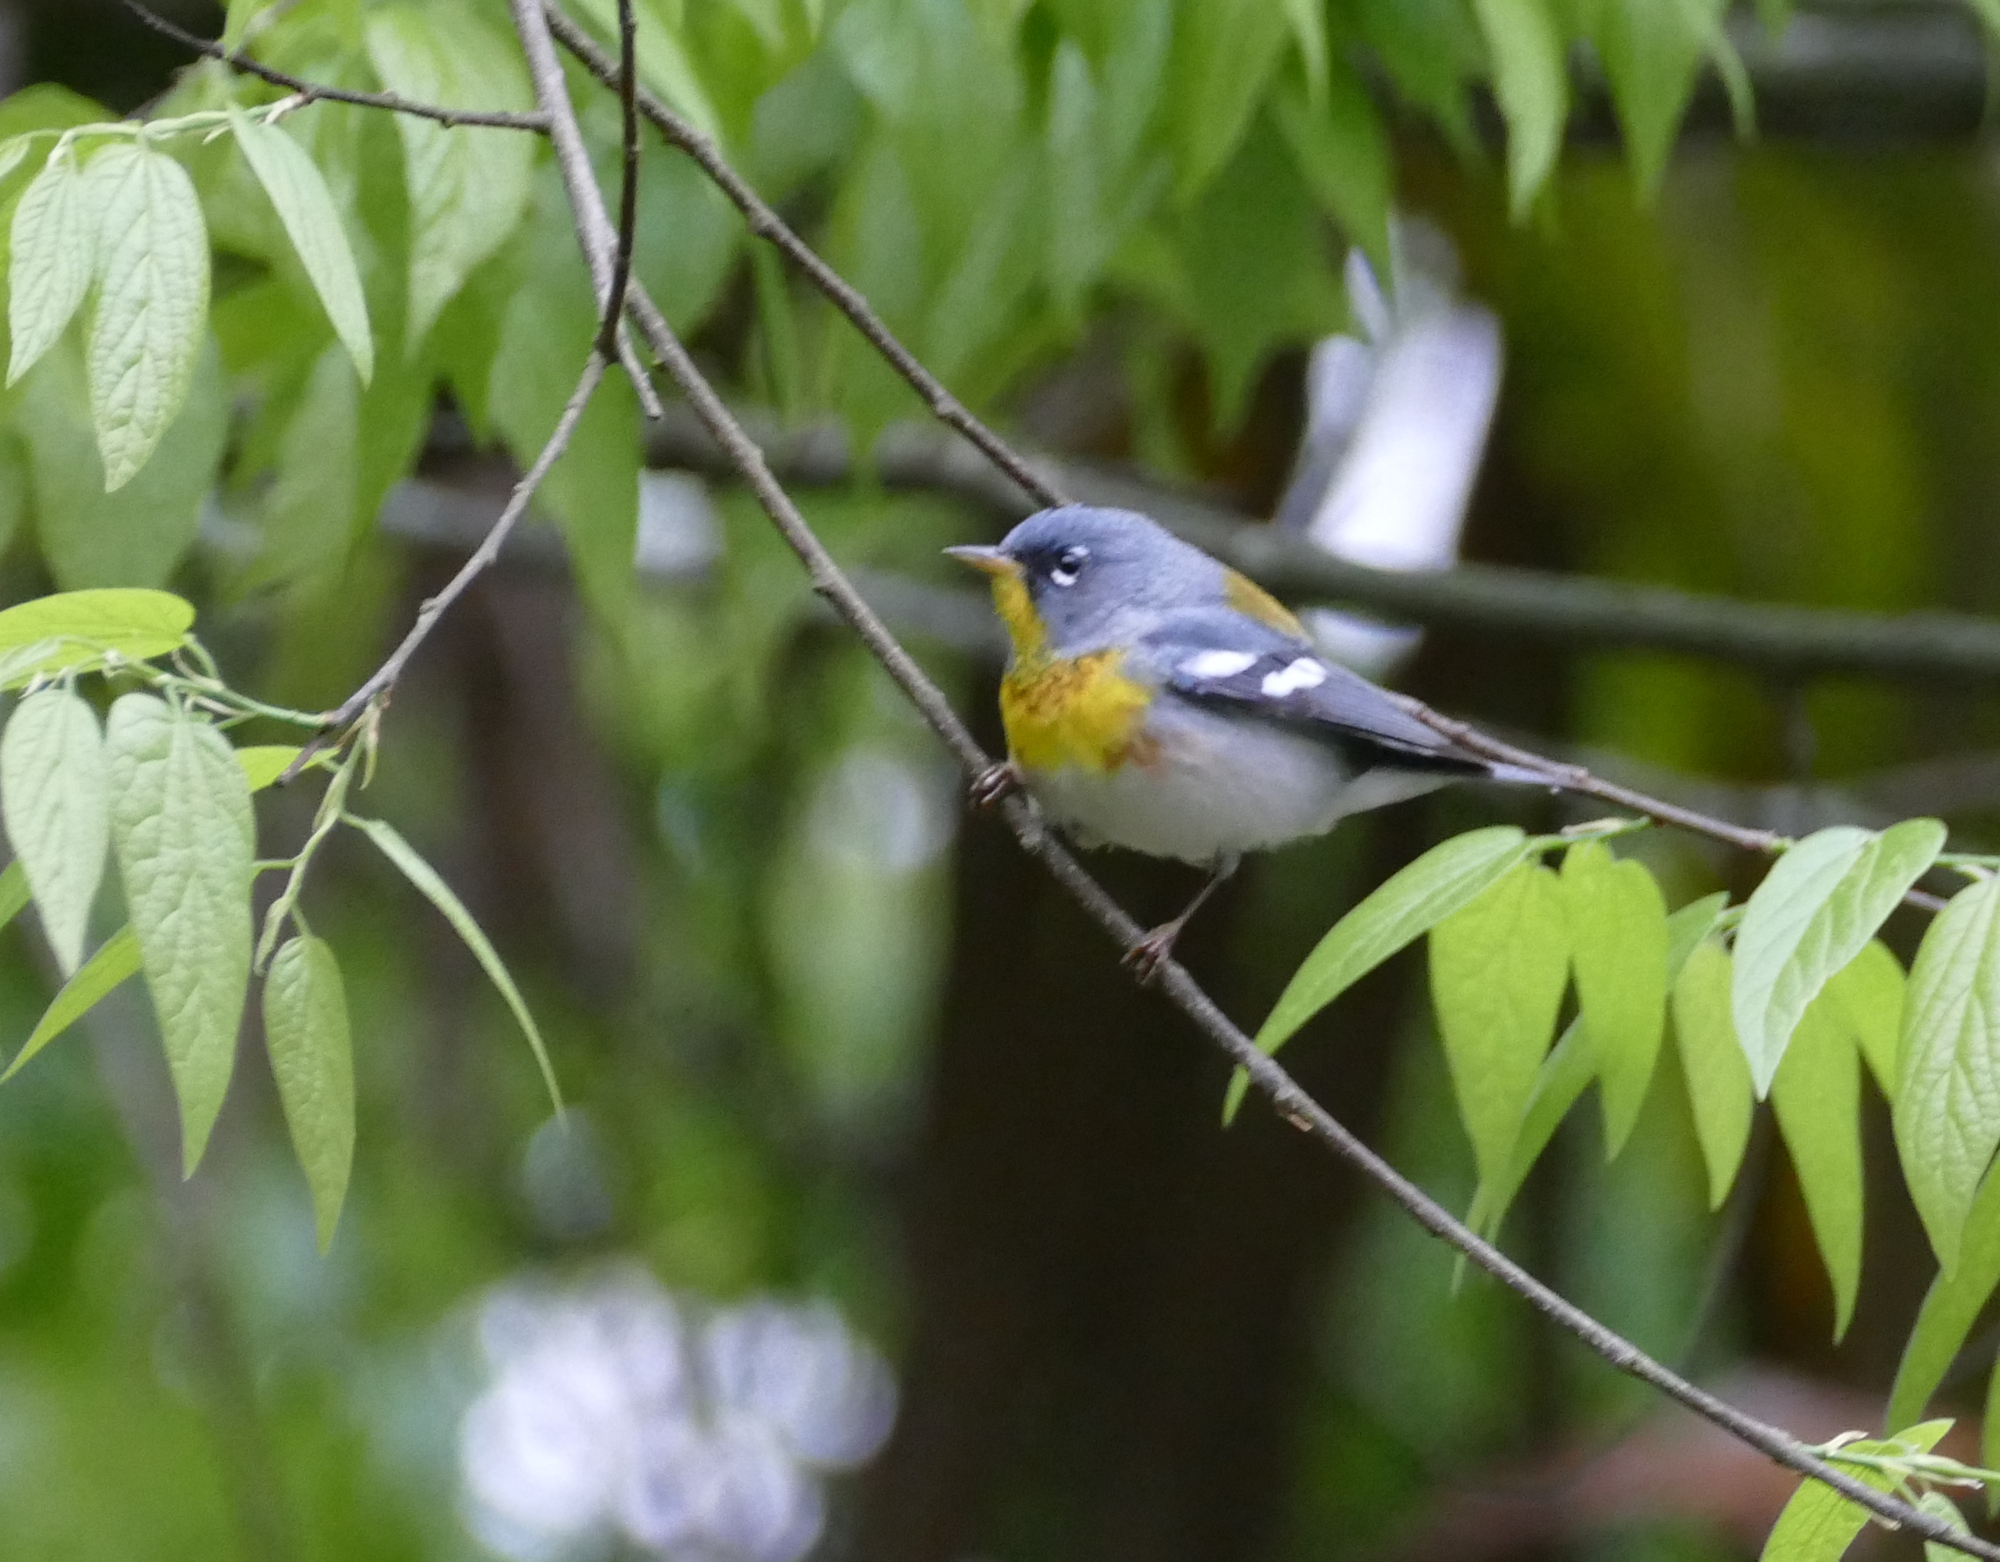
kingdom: Animalia
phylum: Chordata
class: Aves
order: Passeriformes
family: Parulidae
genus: Setophaga
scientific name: Setophaga americana
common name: Northern parula
